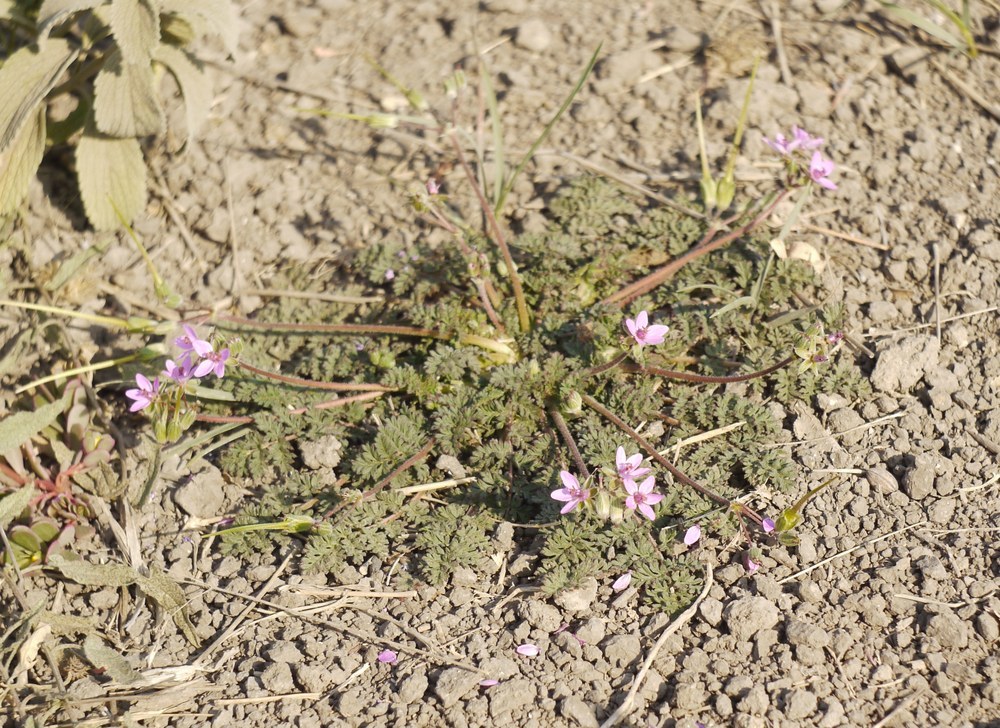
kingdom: Plantae
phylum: Tracheophyta
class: Magnoliopsida
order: Geraniales
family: Geraniaceae
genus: Erodium
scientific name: Erodium cicutarium
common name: Common stork's-bill
